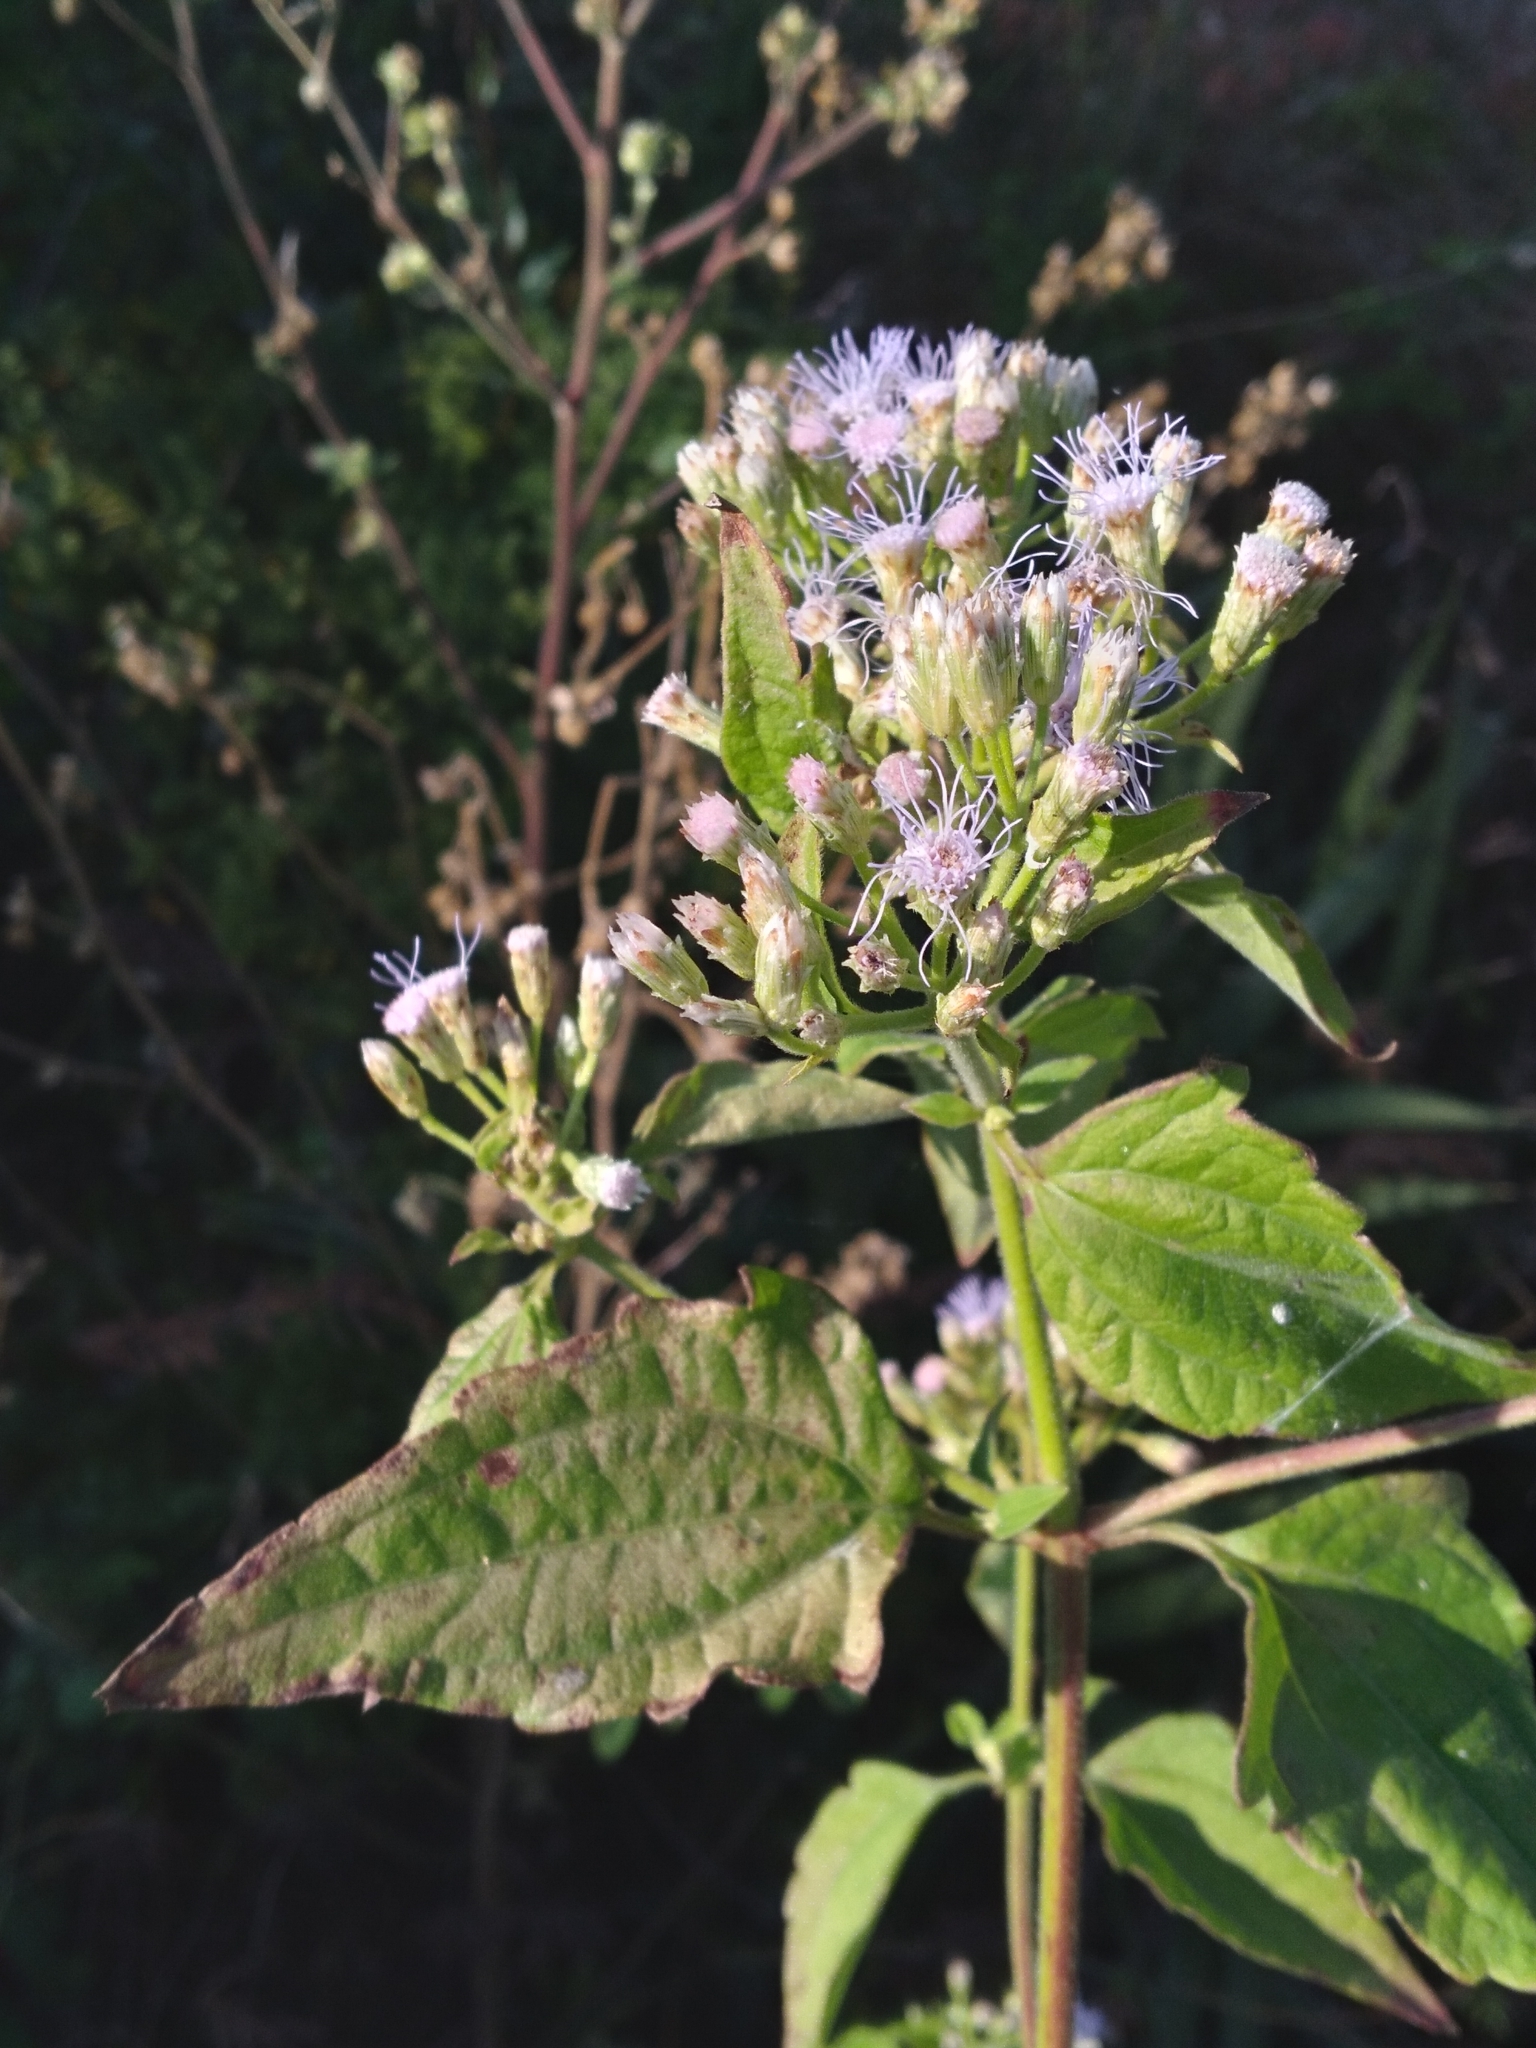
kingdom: Plantae
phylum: Tracheophyta
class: Magnoliopsida
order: Asterales
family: Asteraceae
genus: Chromolaena
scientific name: Chromolaena odorata
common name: Siamweed
